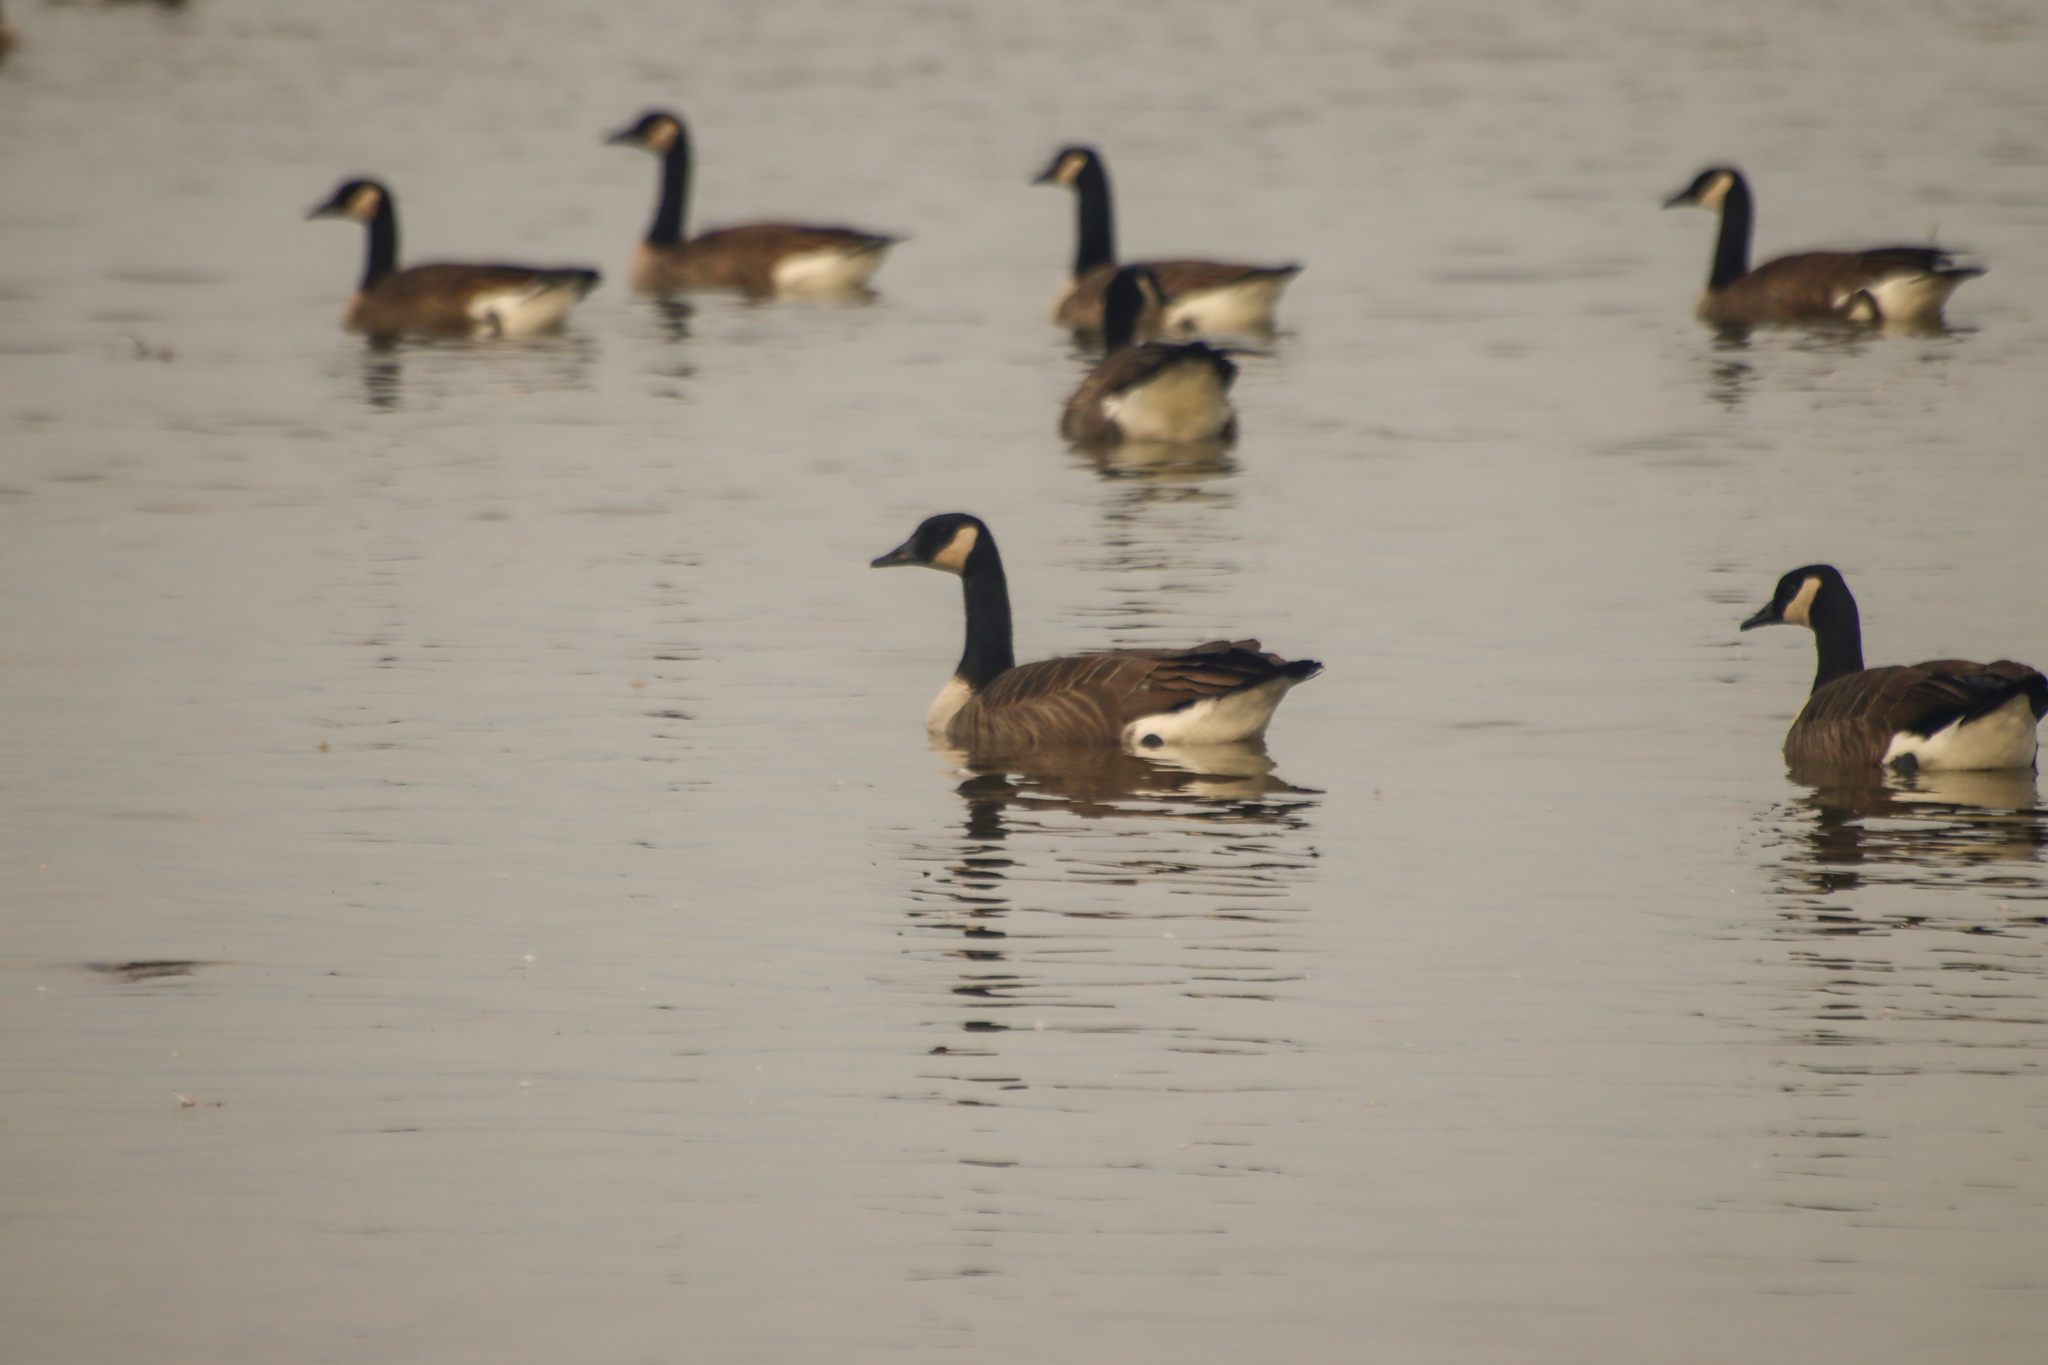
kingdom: Animalia
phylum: Chordata
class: Aves
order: Anseriformes
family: Anatidae
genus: Branta
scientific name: Branta canadensis
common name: Canada goose
